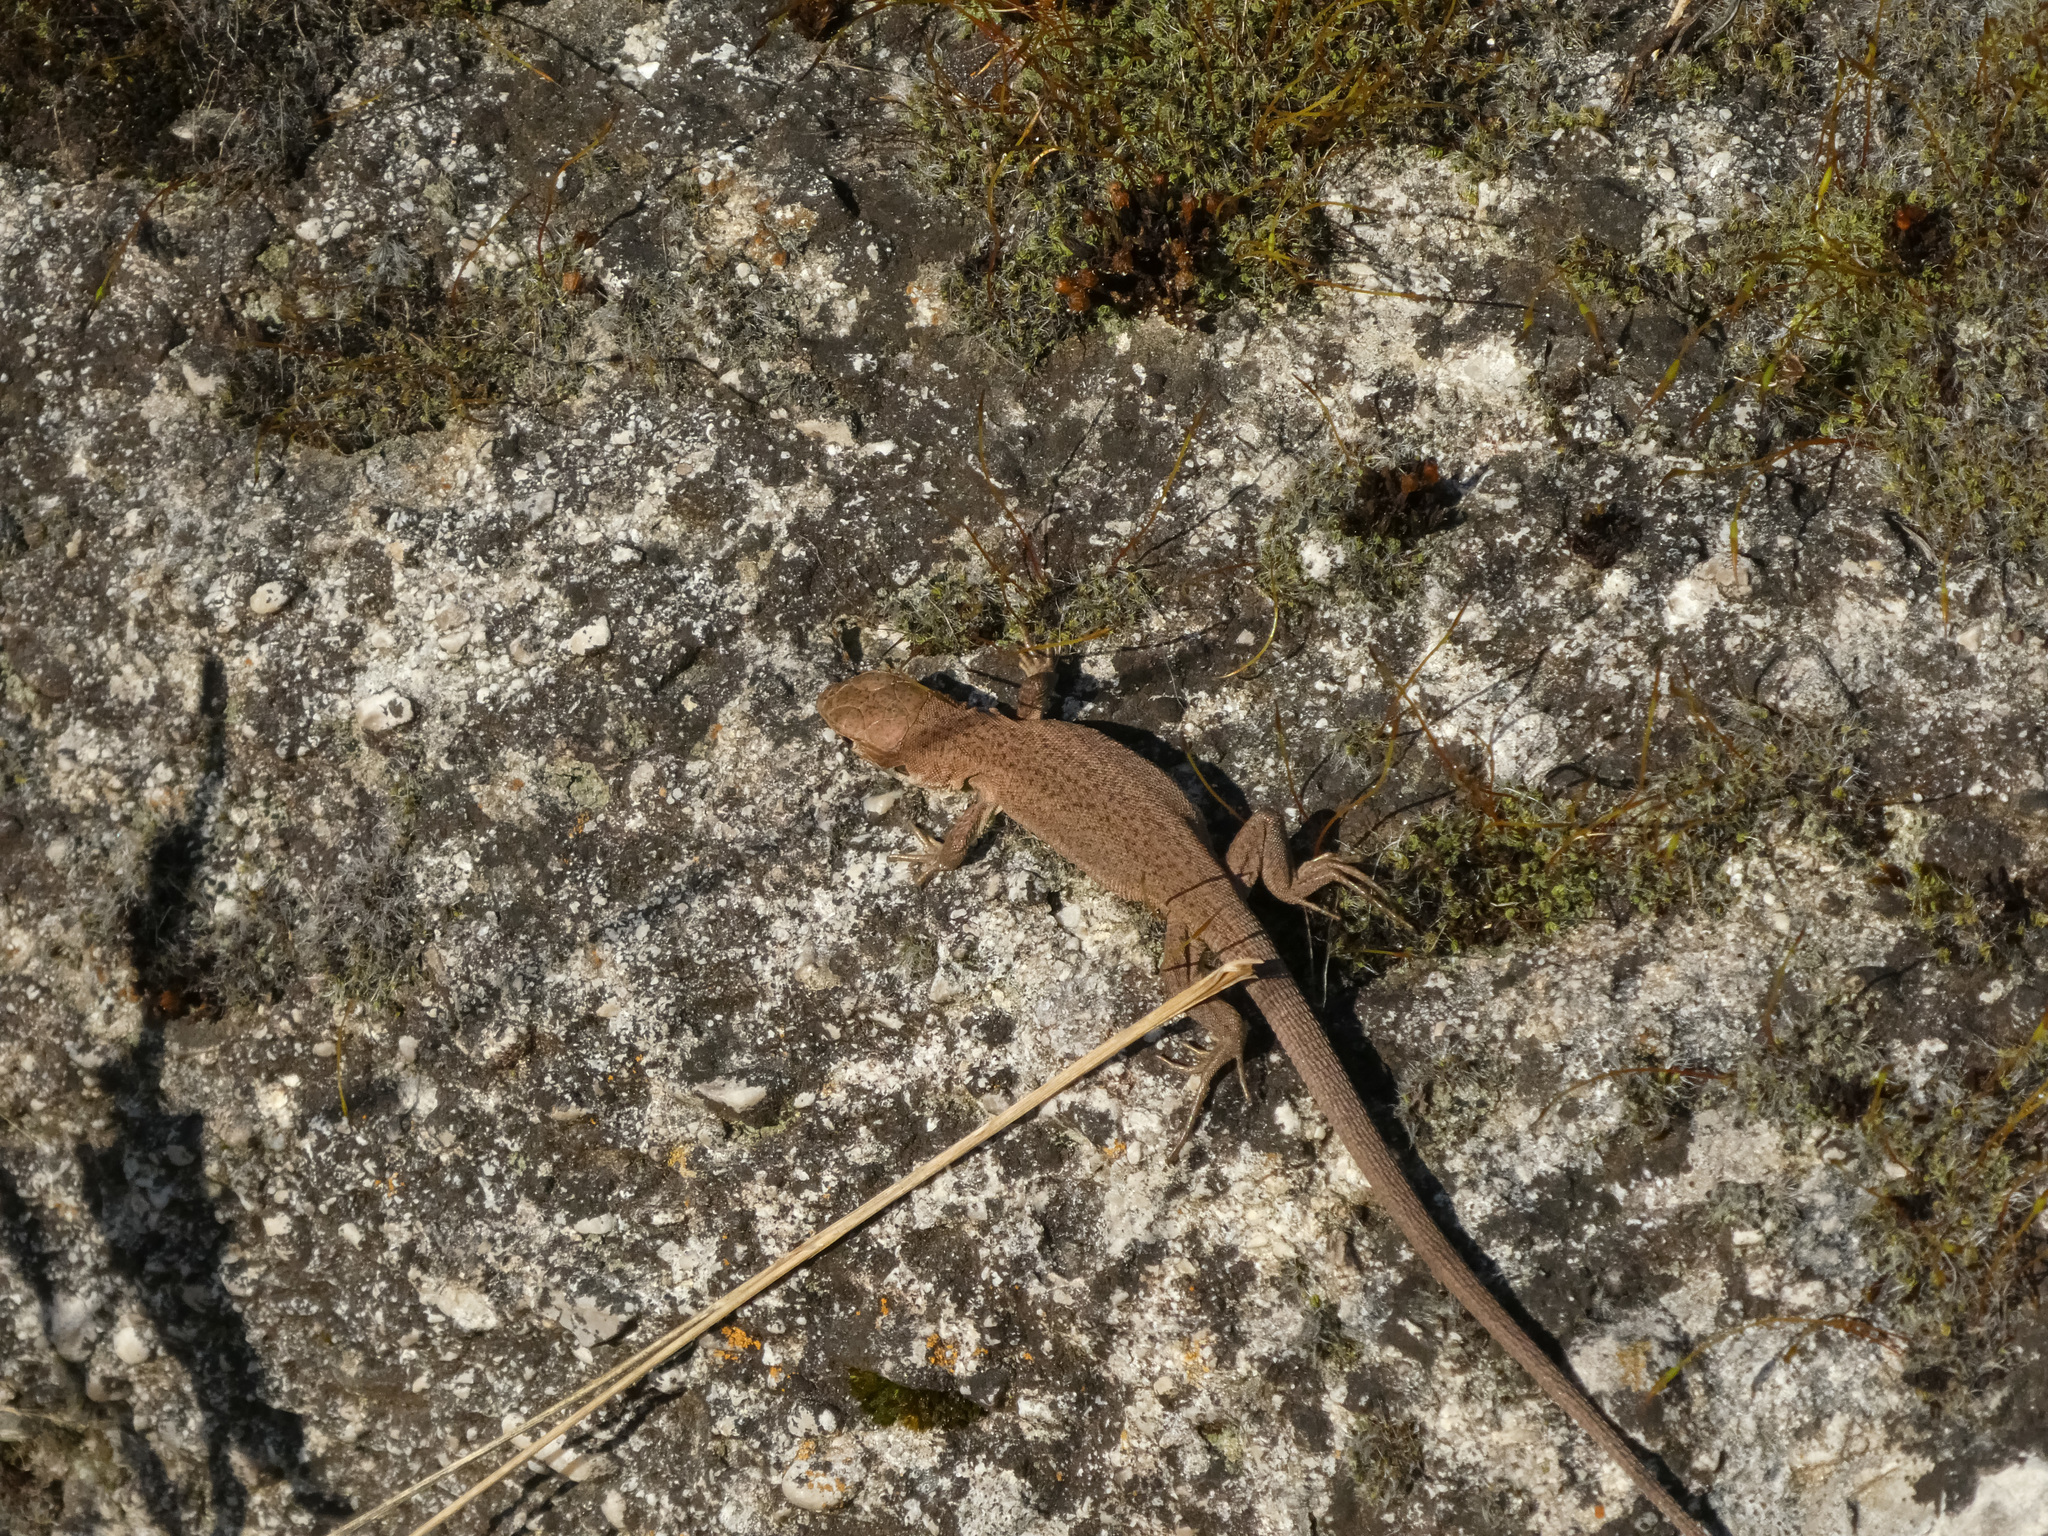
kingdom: Animalia
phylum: Chordata
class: Squamata
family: Lacertidae
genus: Lacerta
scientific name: Lacerta viridis
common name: European green lizard
